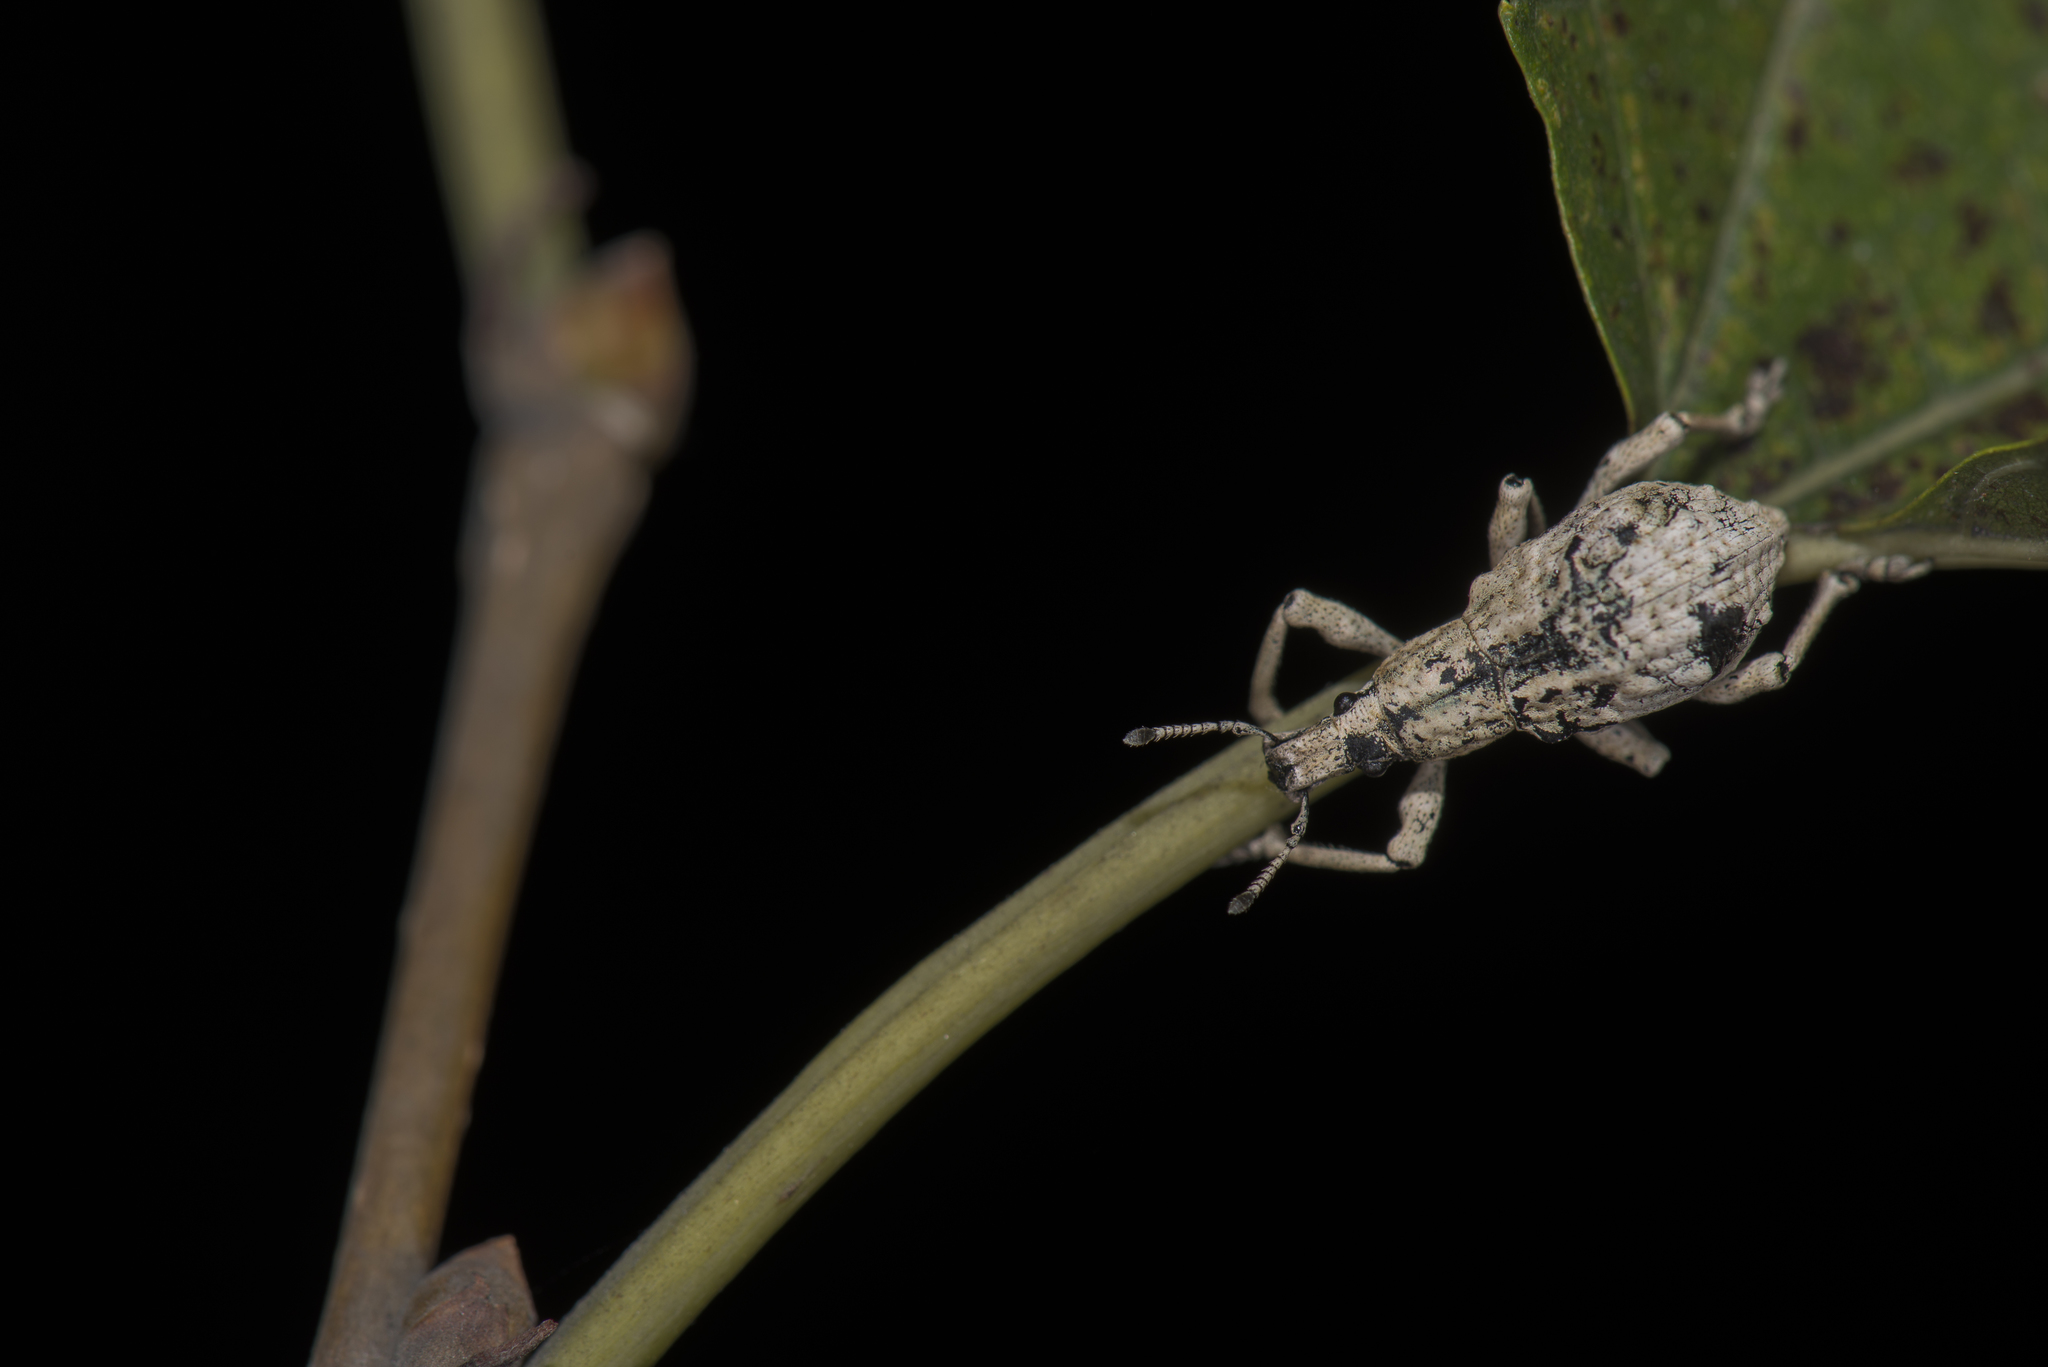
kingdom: Animalia
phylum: Arthropoda
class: Insecta
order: Coleoptera
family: Curculionidae
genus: Dermatoxenus
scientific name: Dermatoxenus caesicollis
